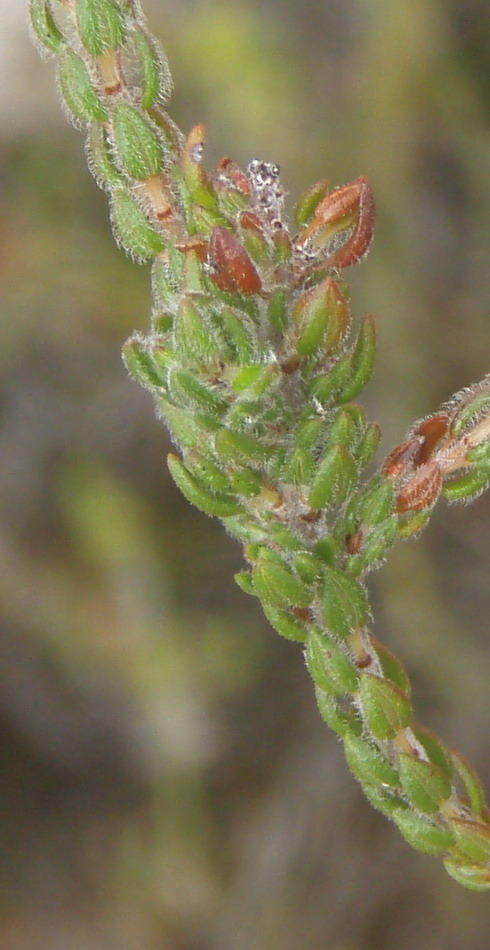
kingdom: Plantae
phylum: Tracheophyta
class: Magnoliopsida
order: Ericales
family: Ericaceae
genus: Erica
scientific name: Erica oreotragus
